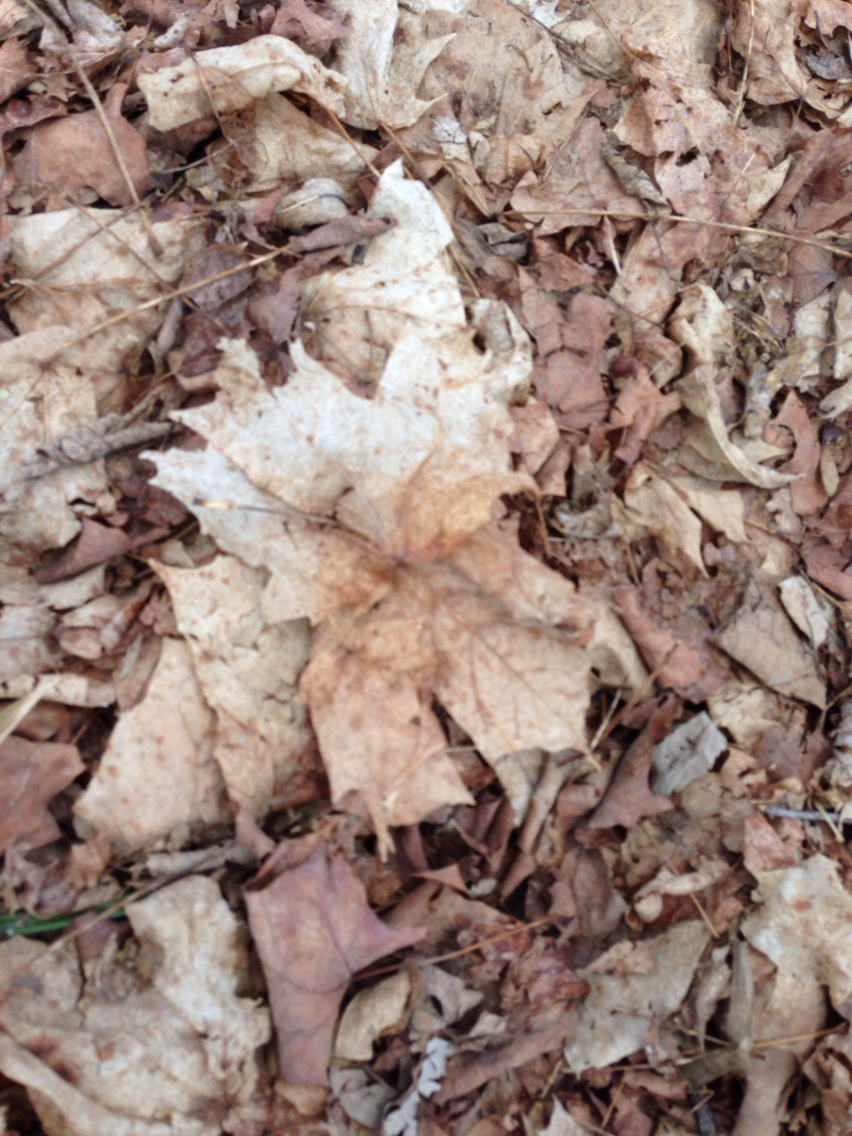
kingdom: Plantae
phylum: Tracheophyta
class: Magnoliopsida
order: Sapindales
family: Sapindaceae
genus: Acer
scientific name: Acer saccharum
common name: Sugar maple
